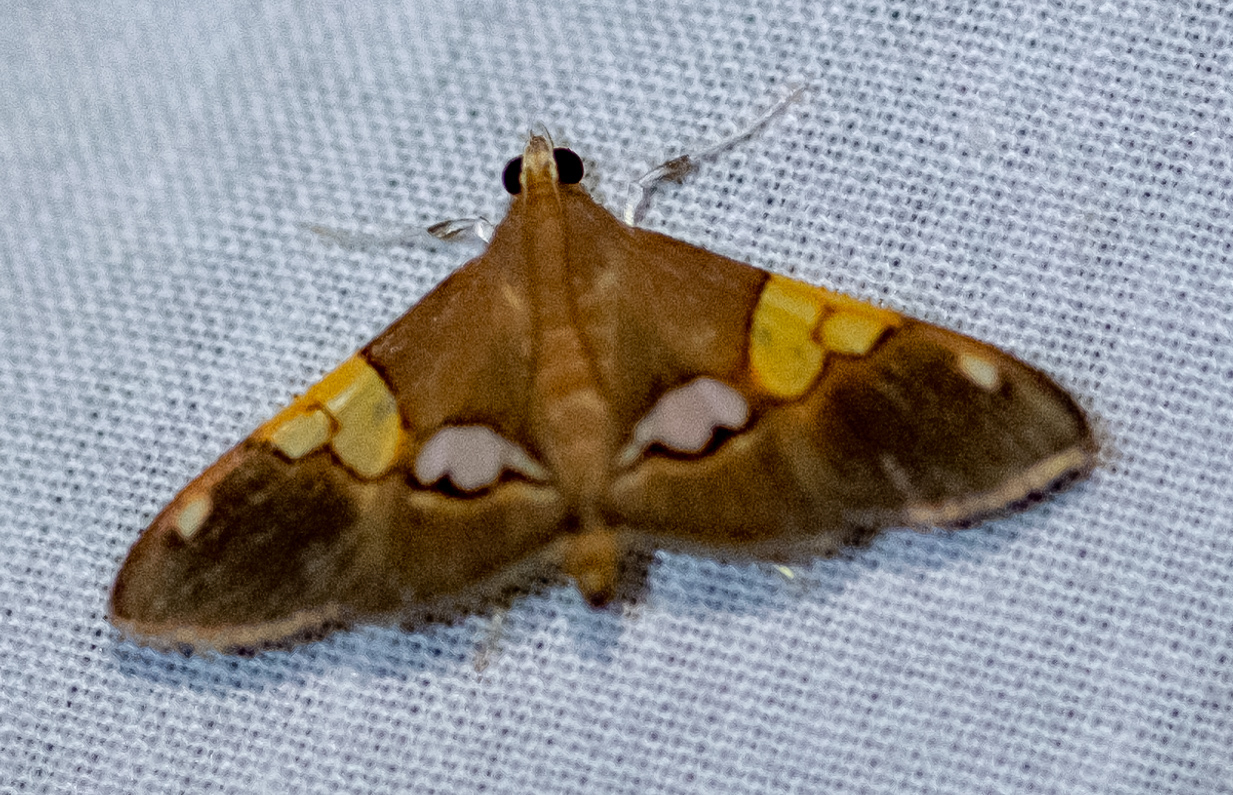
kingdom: Animalia
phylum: Arthropoda
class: Insecta
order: Lepidoptera
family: Crambidae
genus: Heterocnephes
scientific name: Heterocnephes lymphatalis
